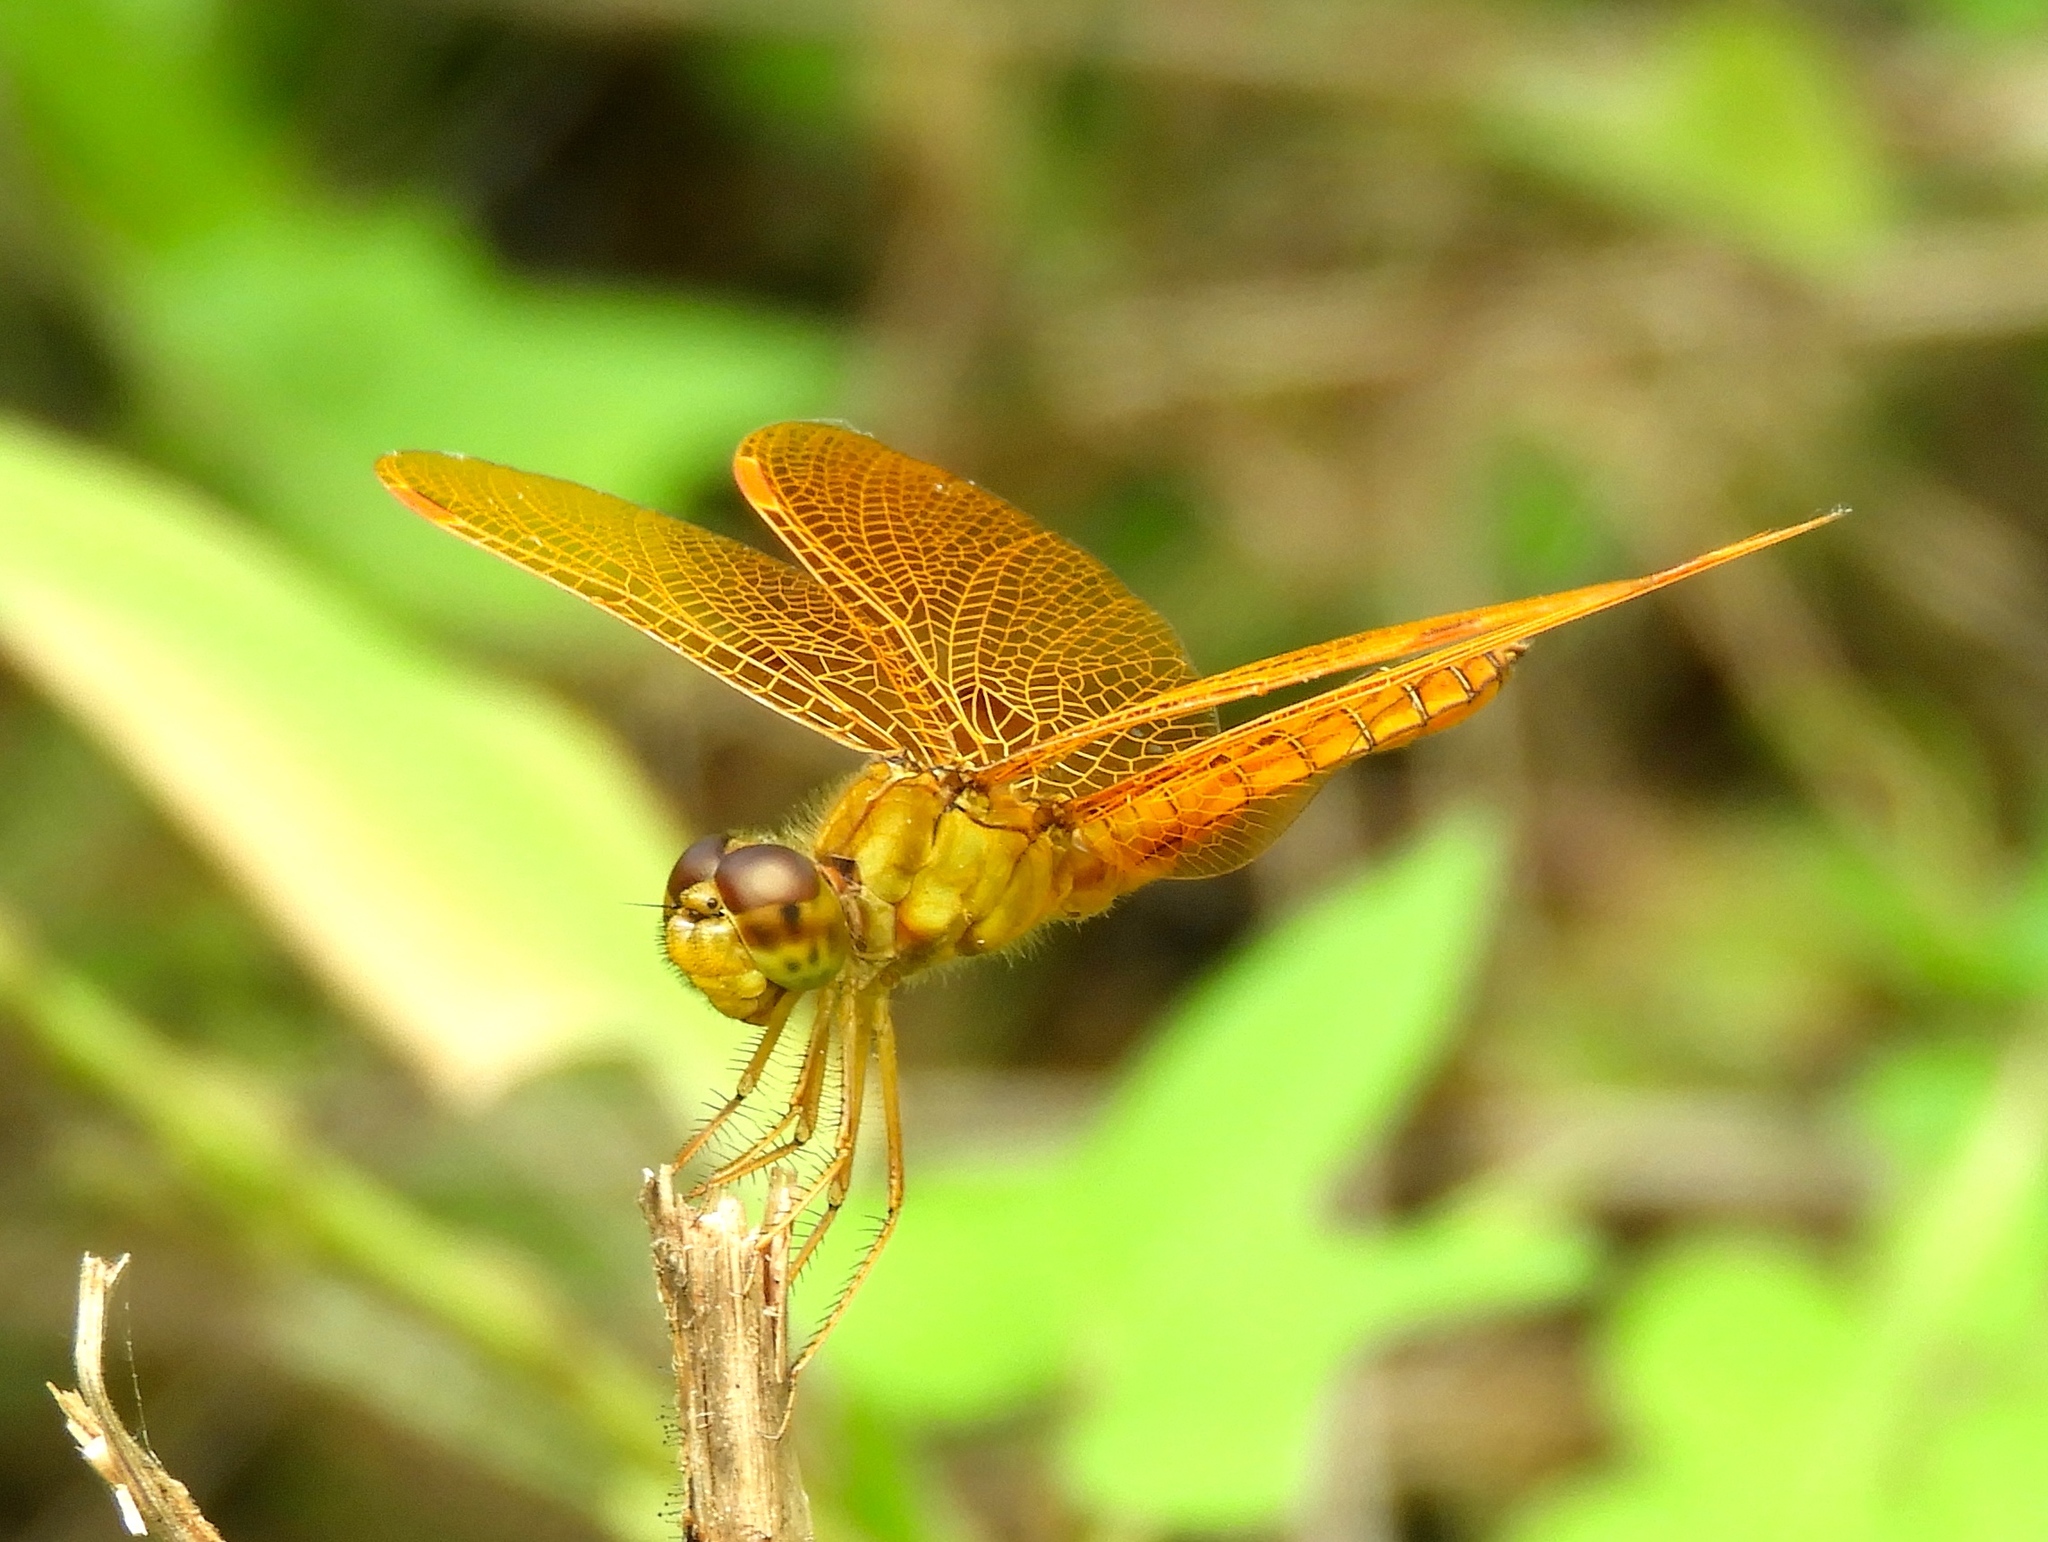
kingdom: Animalia
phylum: Arthropoda
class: Insecta
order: Odonata
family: Libellulidae
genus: Perithemis
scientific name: Perithemis intensa
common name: Mexican amberwing
